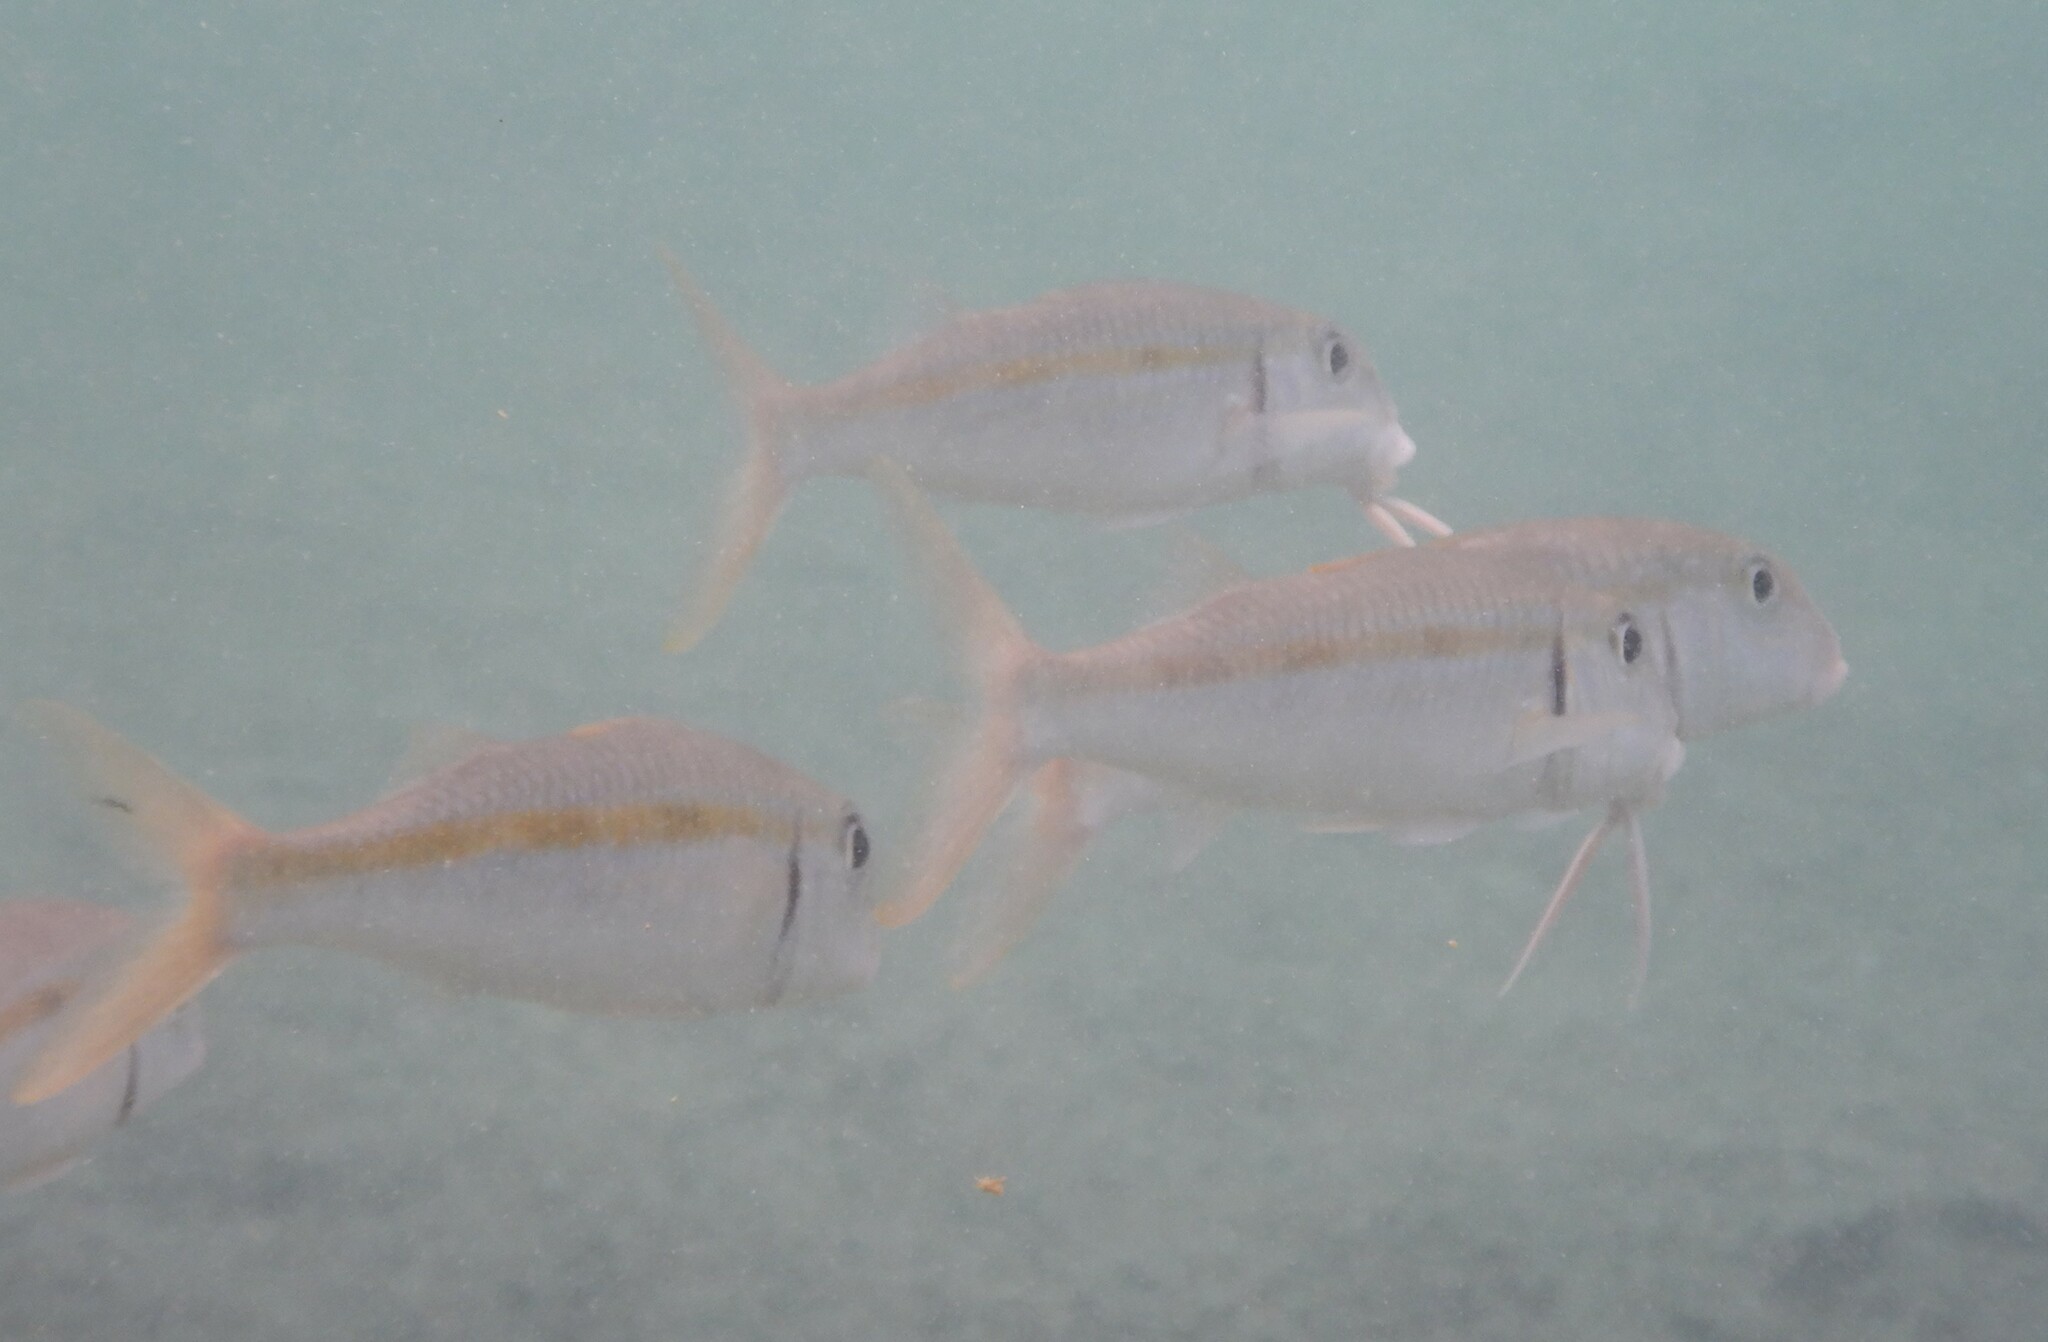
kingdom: Animalia
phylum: Chordata
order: Perciformes
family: Mullidae
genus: Mulloidichthys
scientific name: Mulloidichthys flavolineatus
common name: Yellowstripe goatfish
